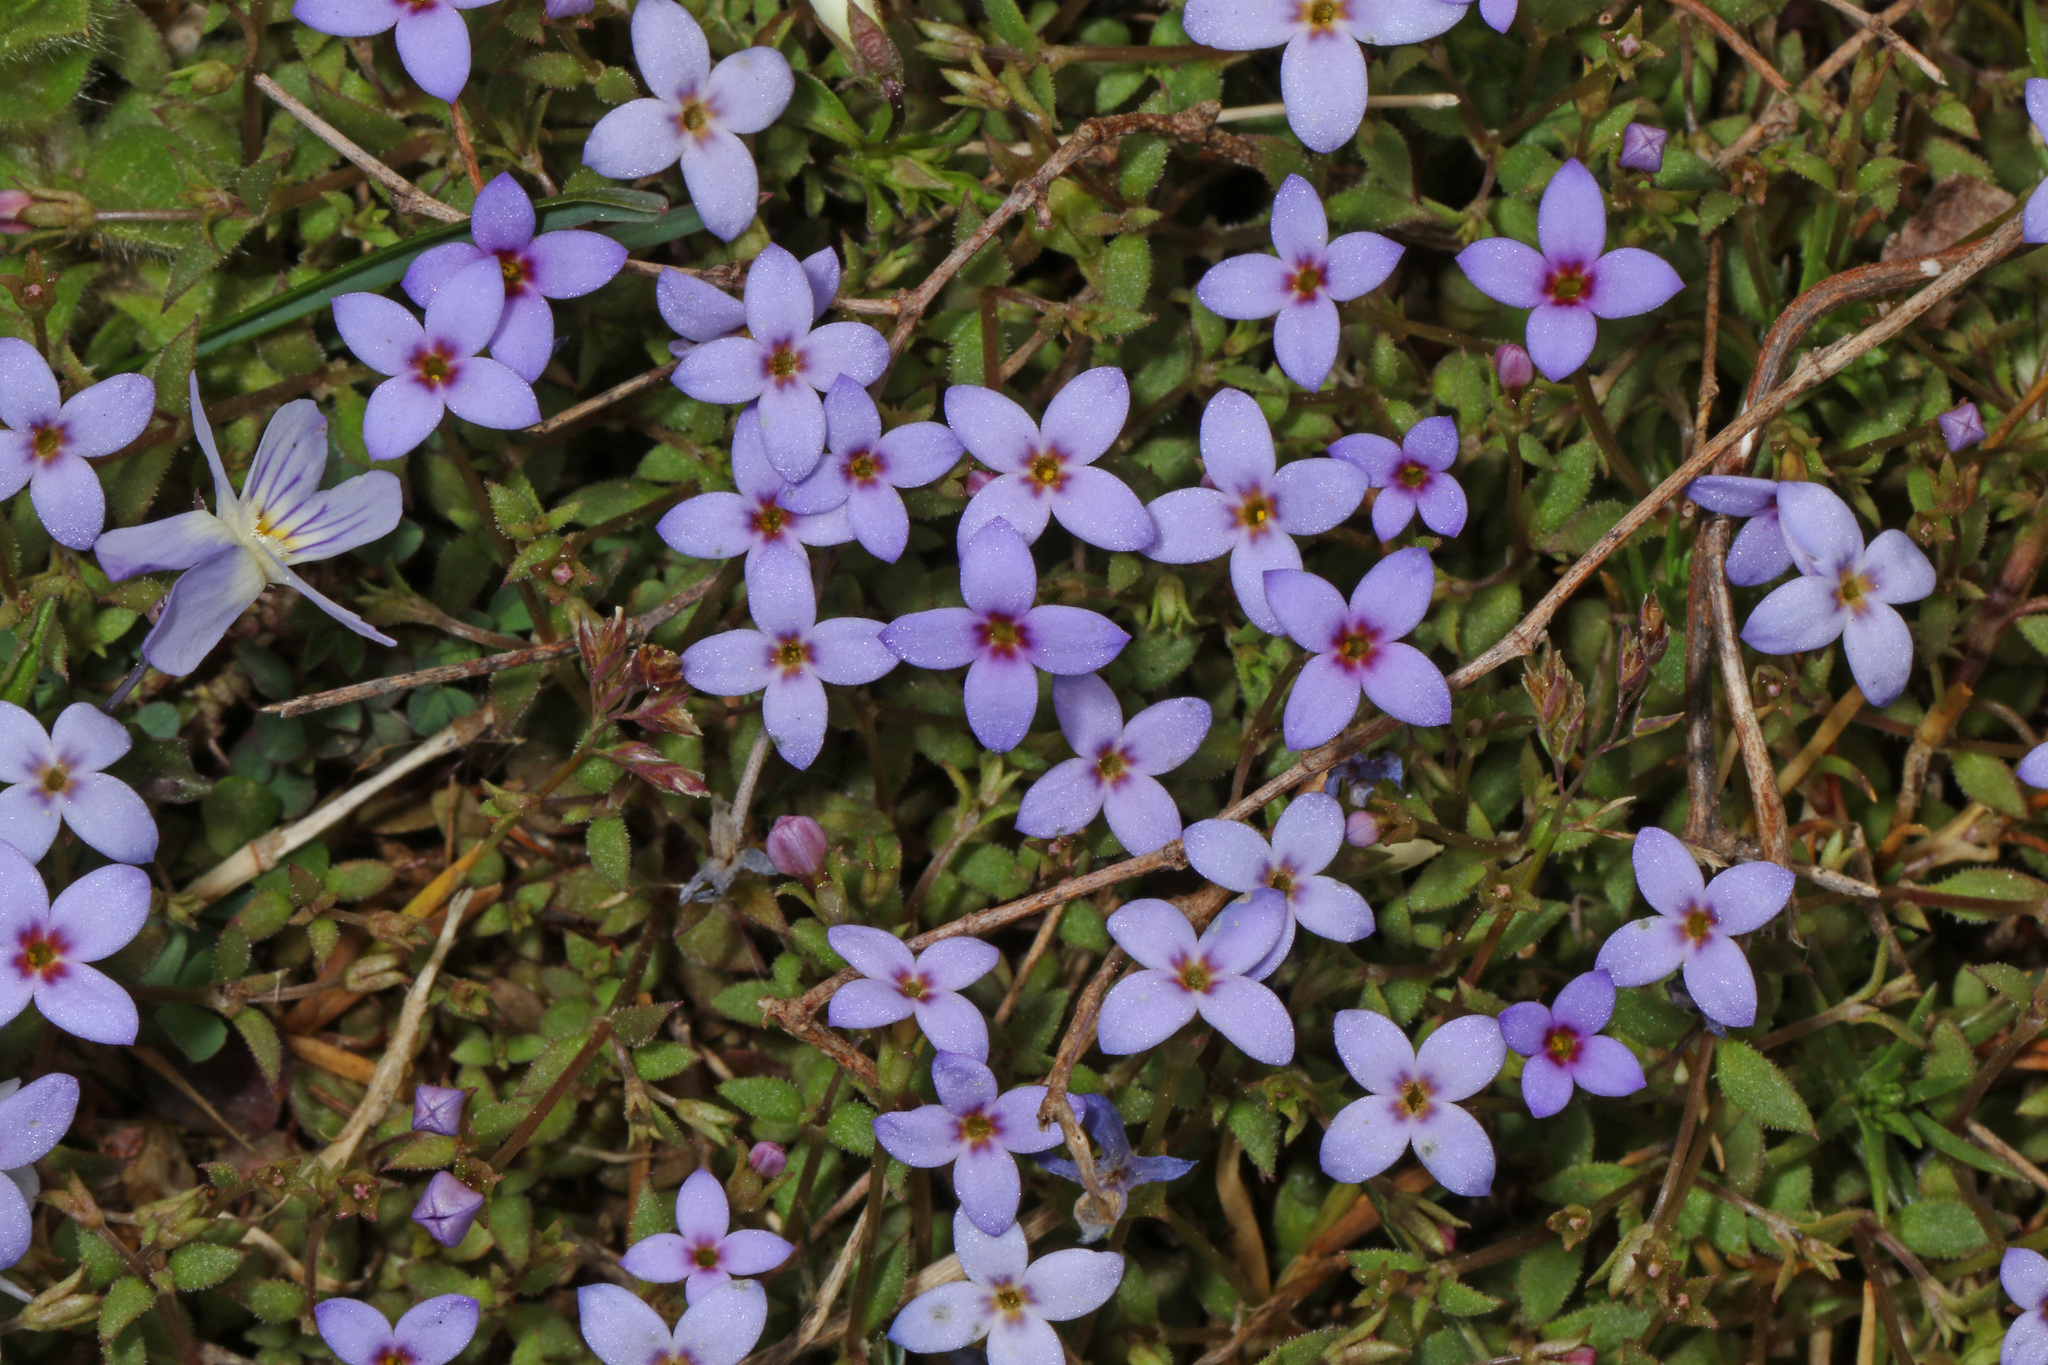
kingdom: Plantae
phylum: Tracheophyta
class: Magnoliopsida
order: Gentianales
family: Rubiaceae
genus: Houstonia
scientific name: Houstonia pusilla
